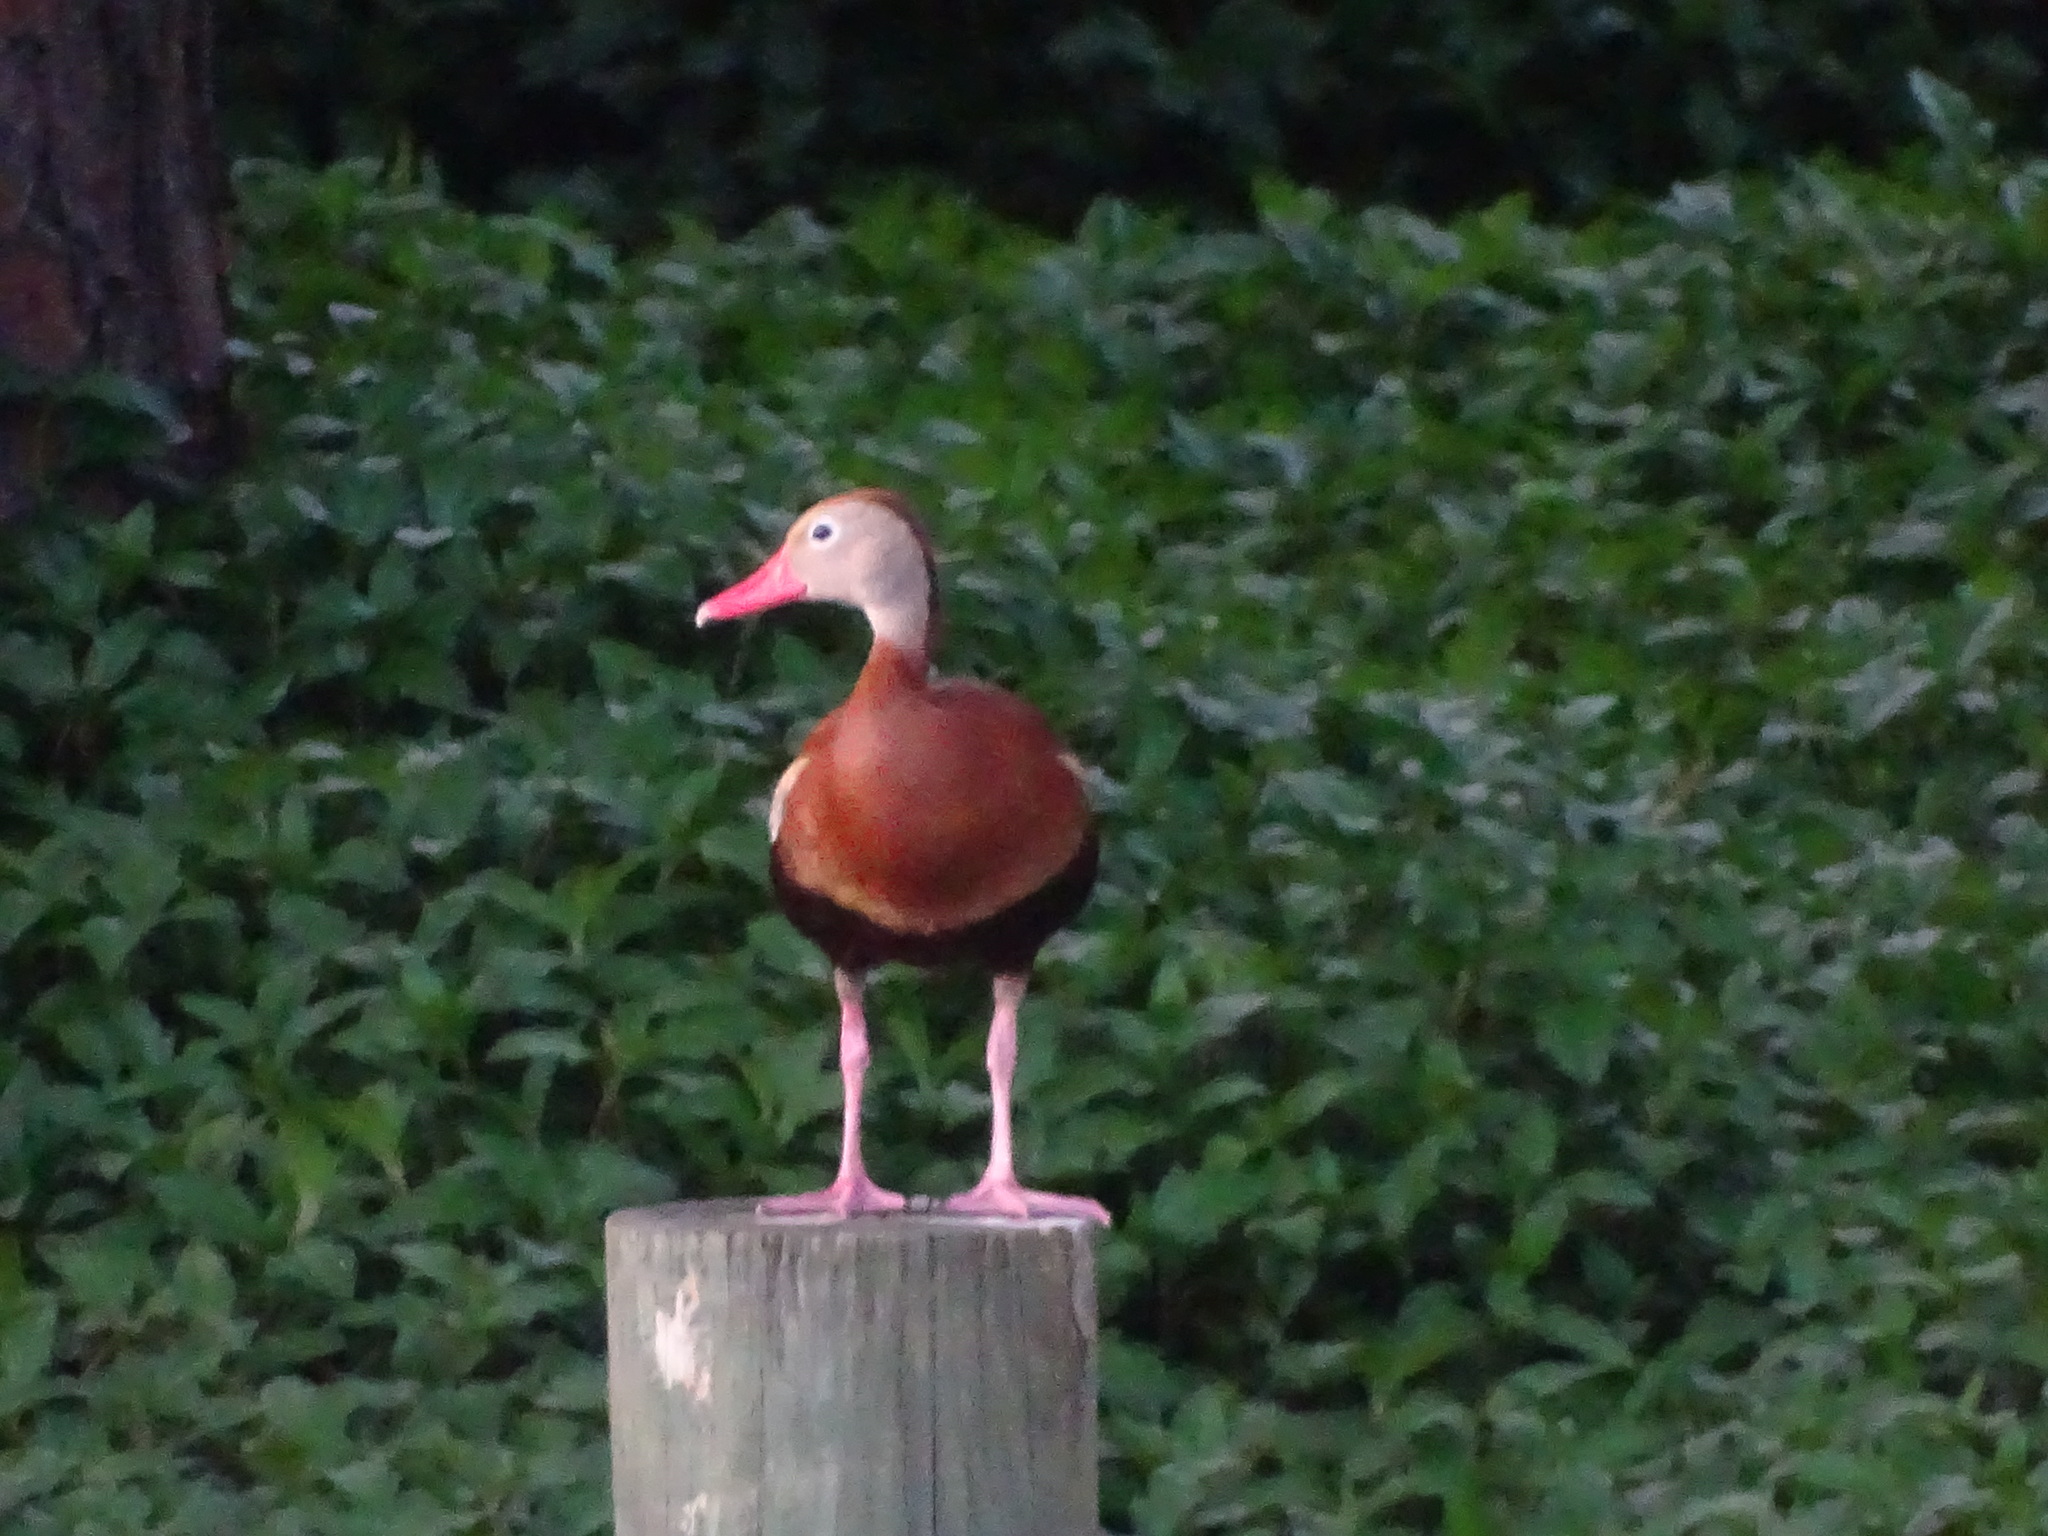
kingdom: Animalia
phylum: Chordata
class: Aves
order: Anseriformes
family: Anatidae
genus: Dendrocygna
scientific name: Dendrocygna autumnalis
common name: Black-bellied whistling duck
